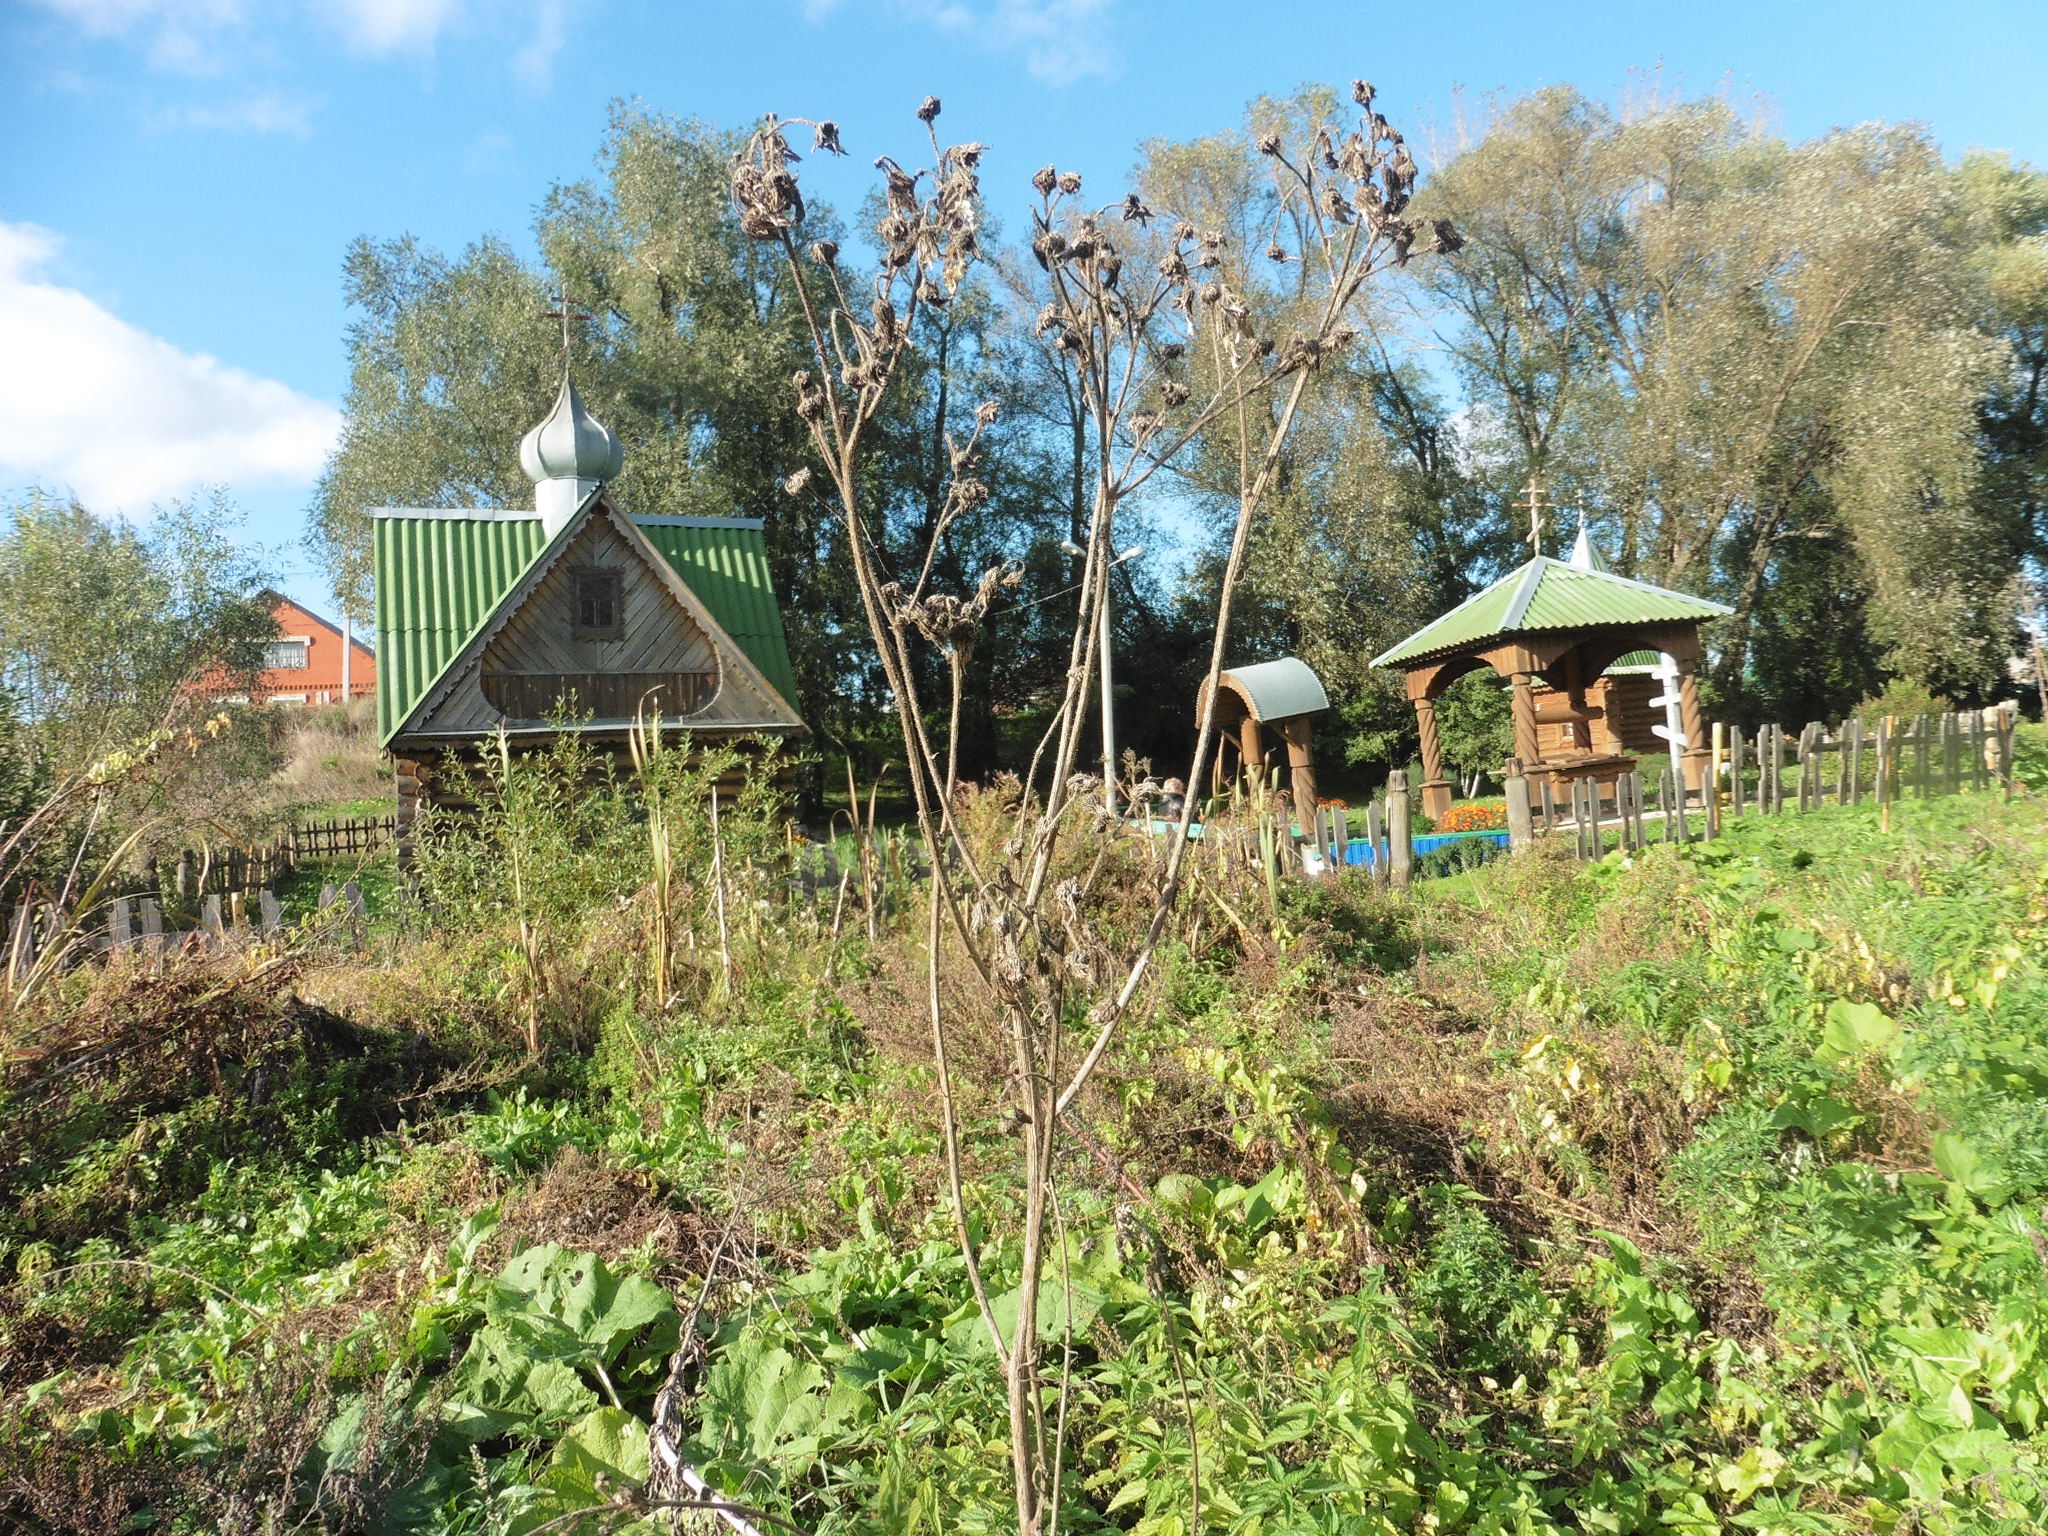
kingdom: Plantae
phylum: Tracheophyta
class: Magnoliopsida
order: Asterales
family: Asteraceae
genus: Sonchus
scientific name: Sonchus palustris
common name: Marsh sow-thistle
